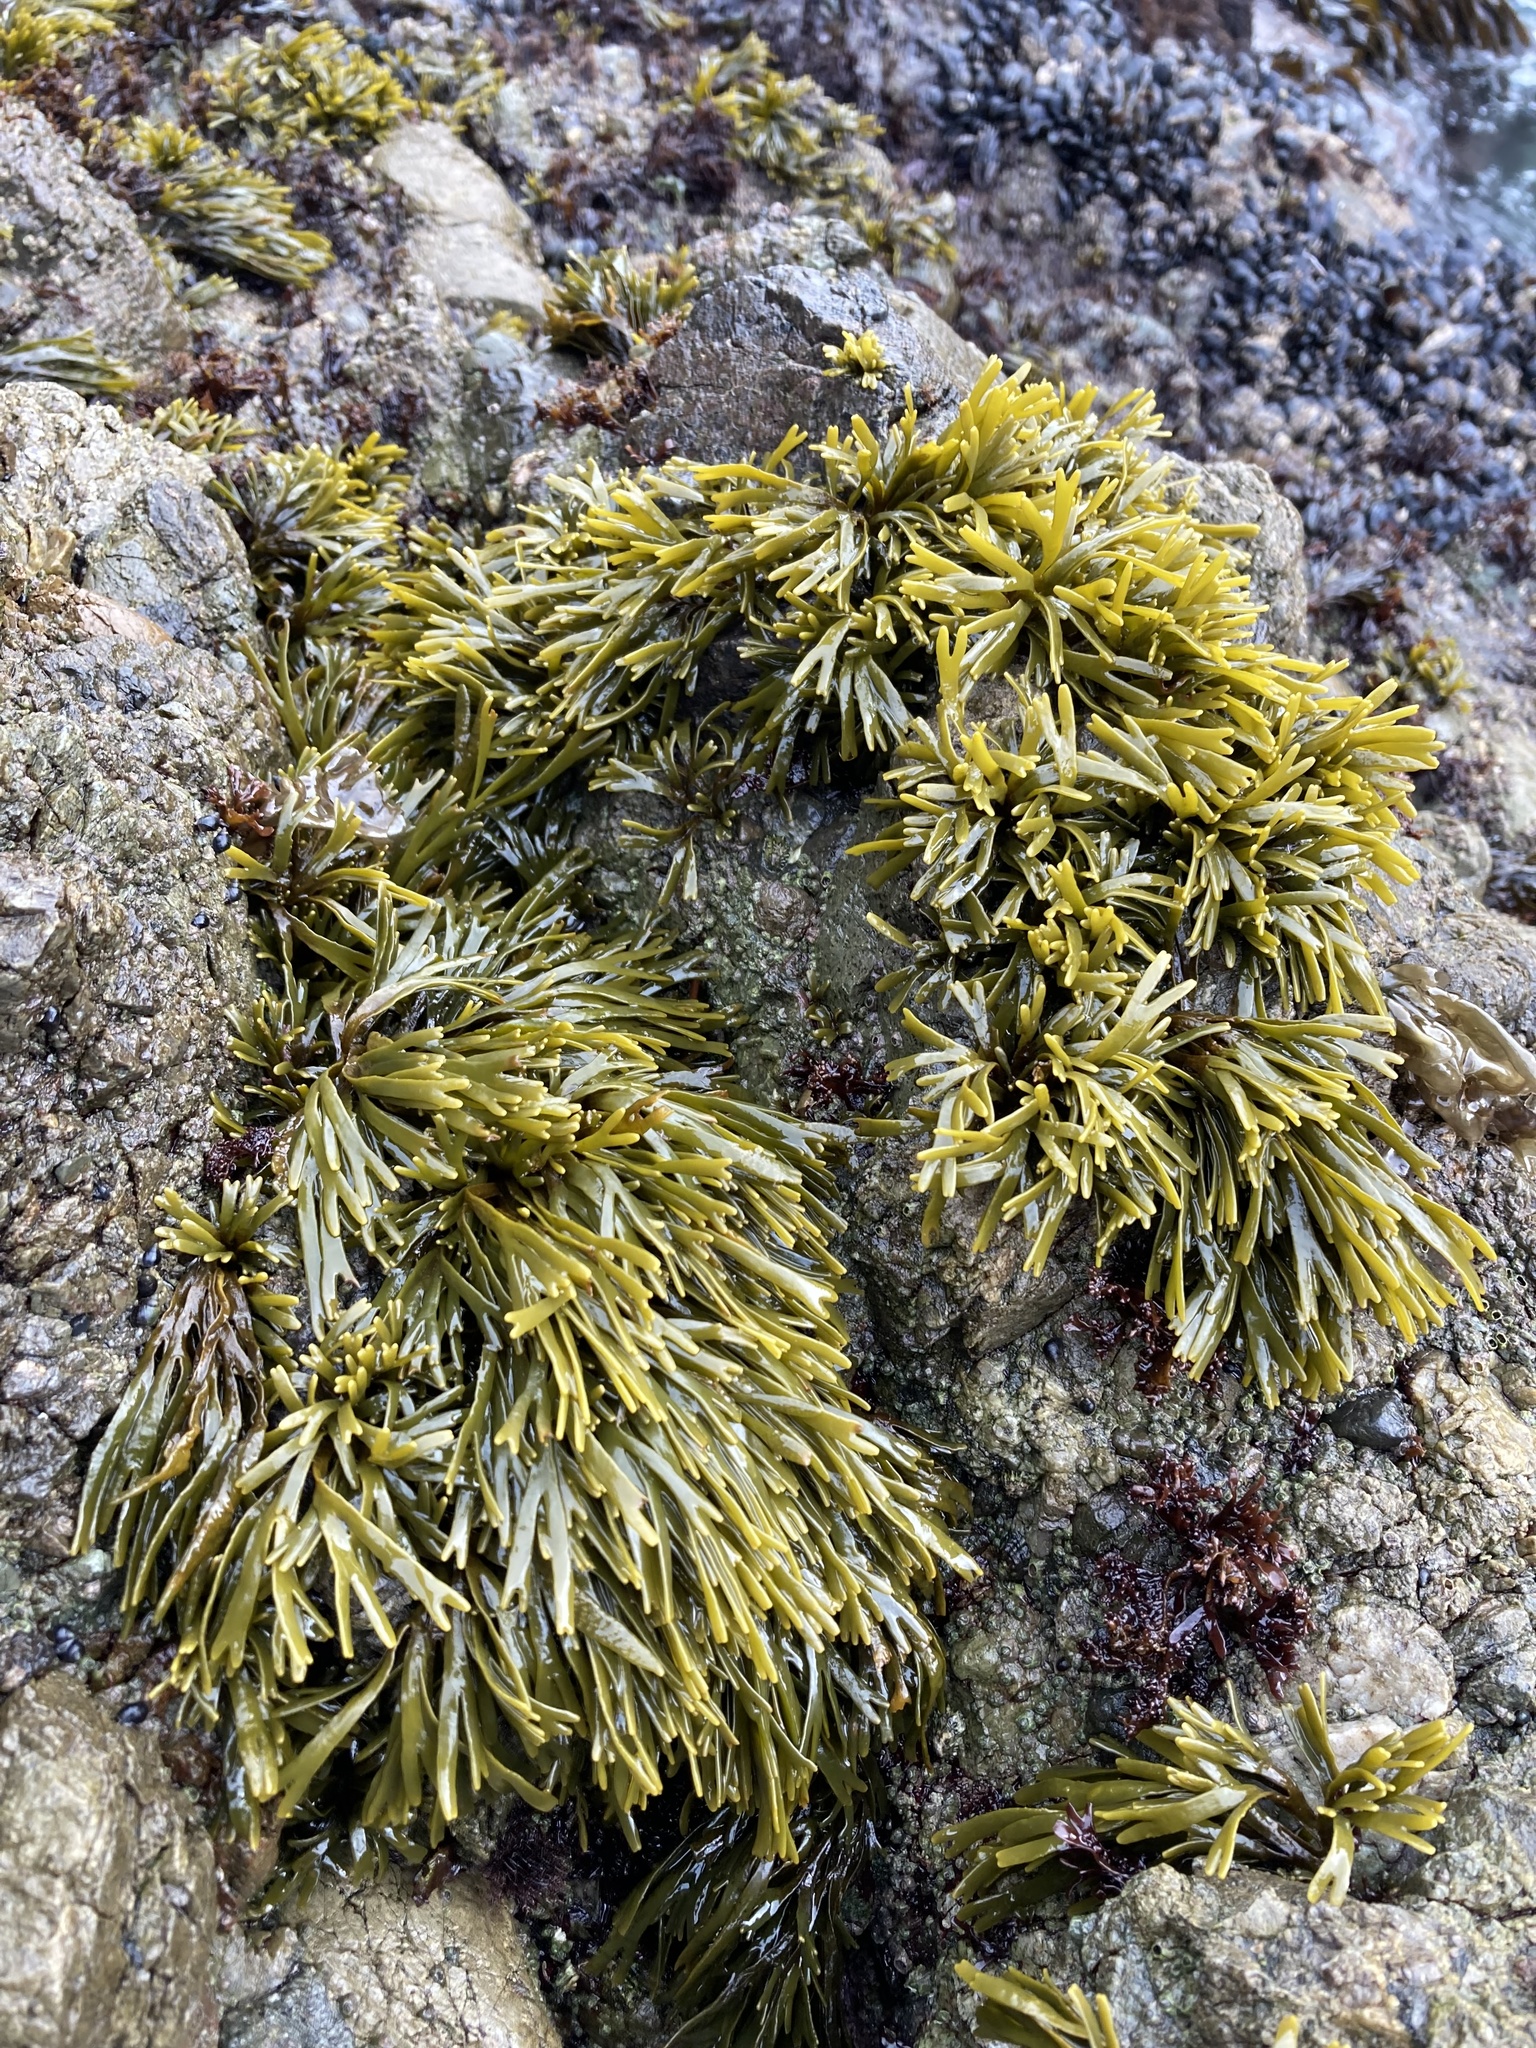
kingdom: Chromista
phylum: Ochrophyta
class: Phaeophyceae
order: Fucales
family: Fucaceae
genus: Pelvetiopsis
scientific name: Pelvetiopsis limitata
